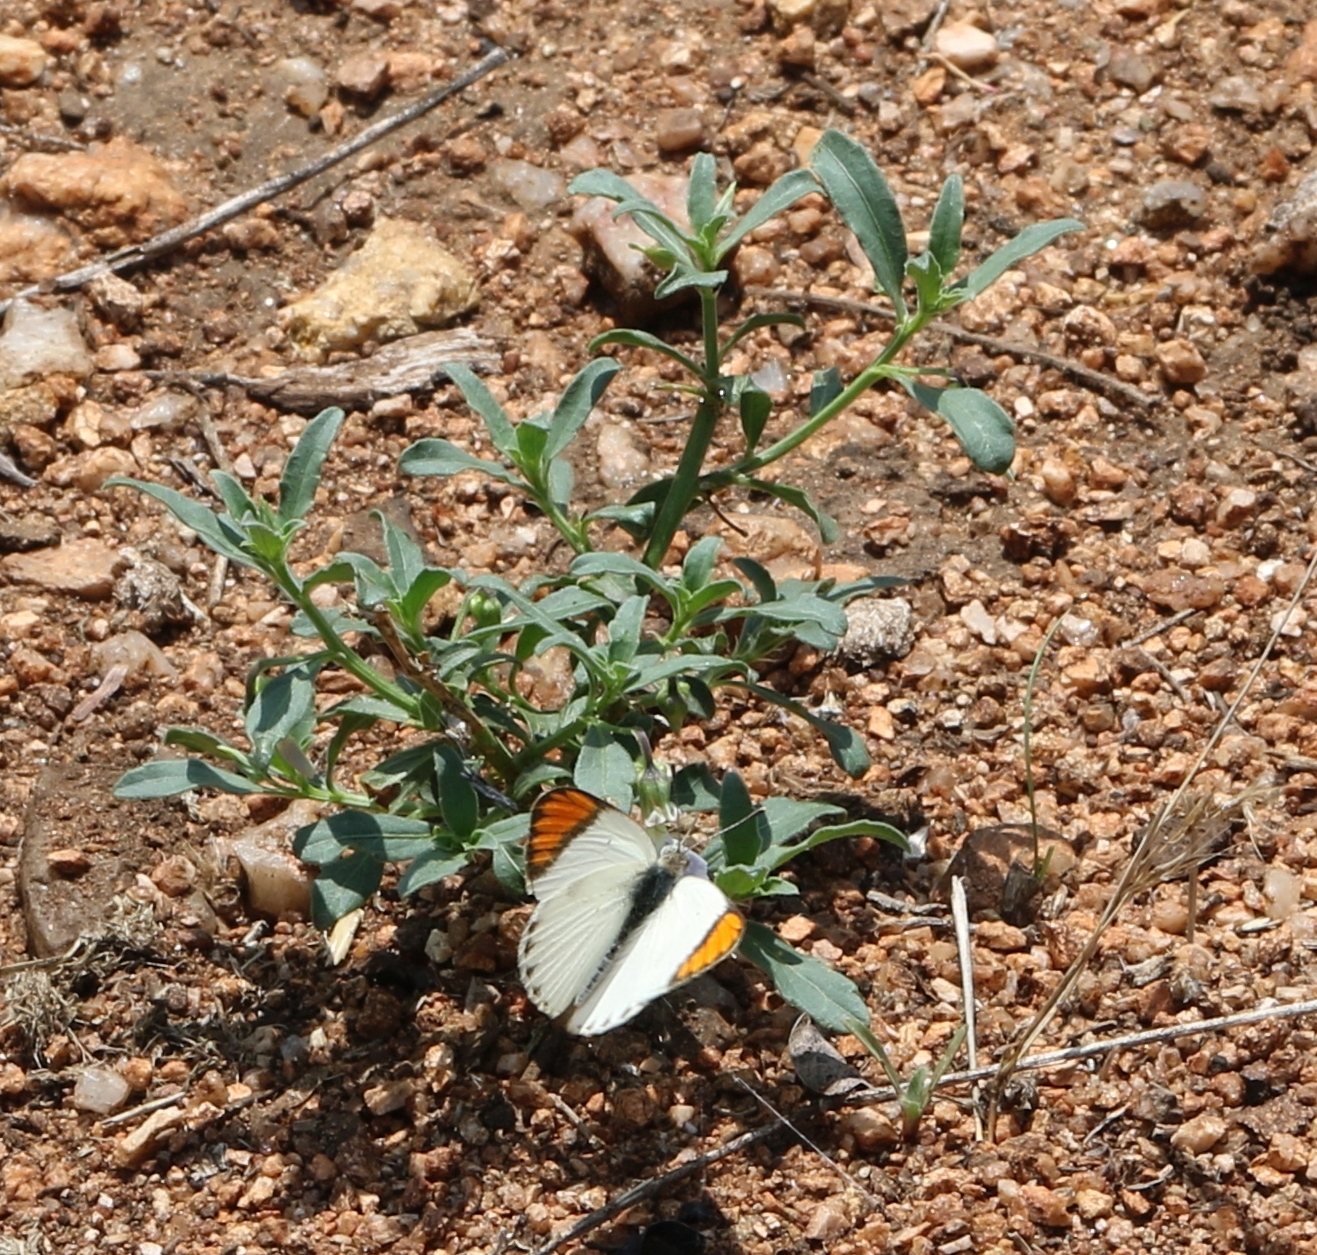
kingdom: Animalia
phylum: Arthropoda
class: Insecta
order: Lepidoptera
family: Pieridae
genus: Colotis
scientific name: Colotis euippe
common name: Round-winged orange tip
